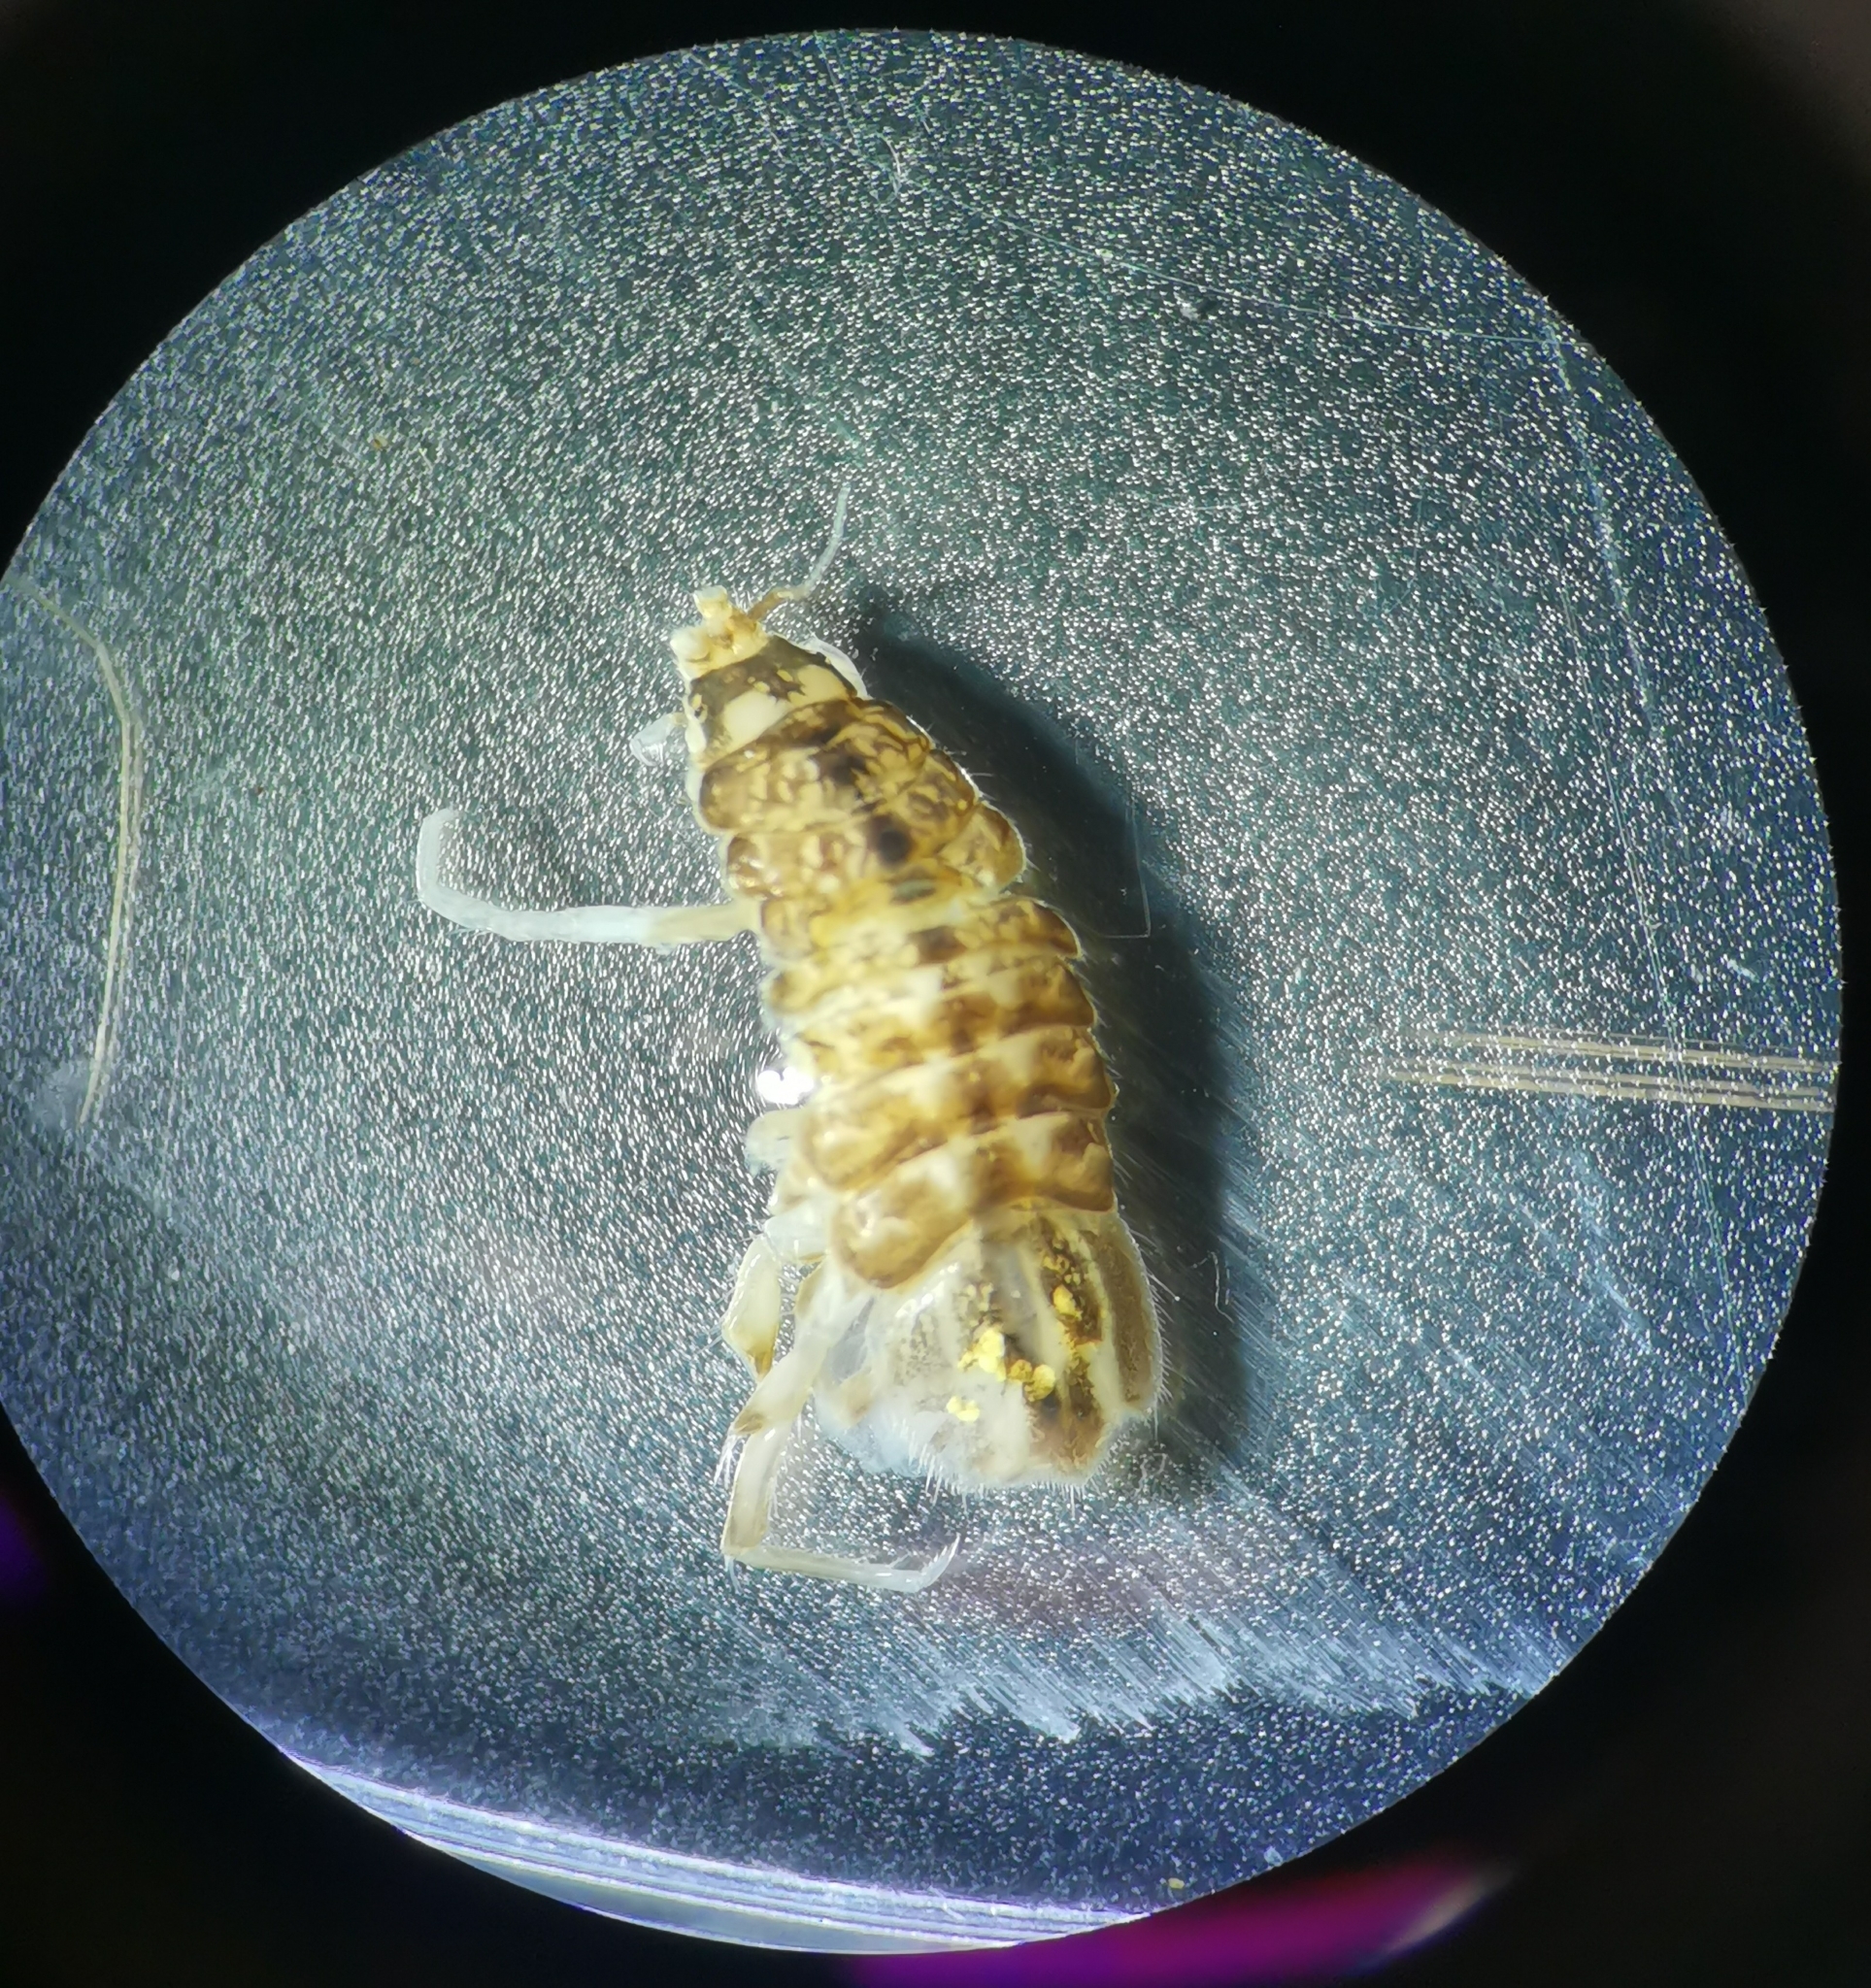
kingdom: Animalia
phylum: Arthropoda
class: Malacostraca
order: Isopoda
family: Asellidae
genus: Asellus
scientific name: Asellus aquaticus
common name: Water hog lice/slaters
